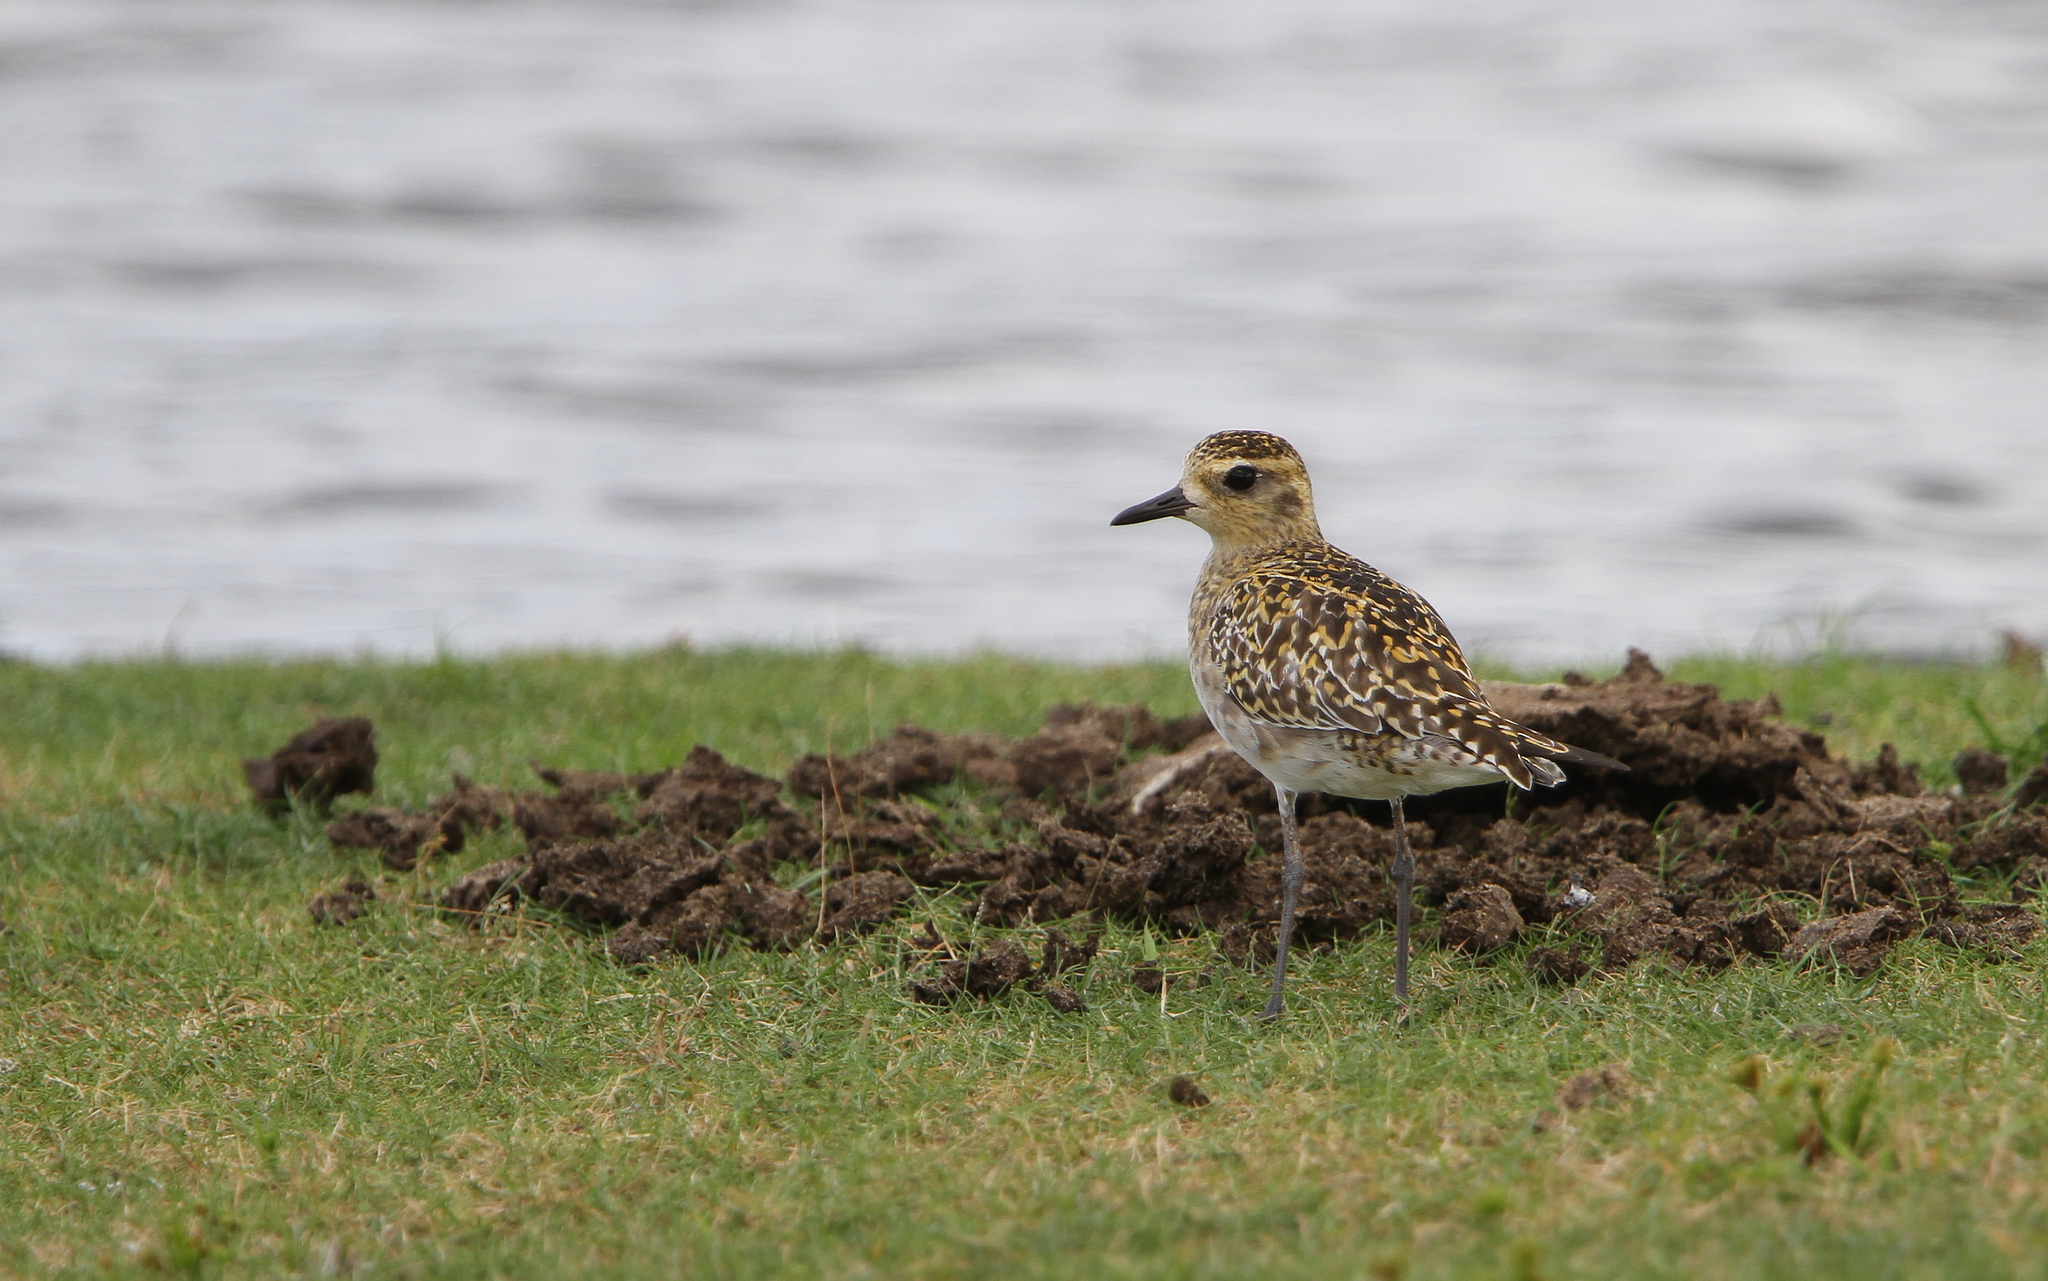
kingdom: Animalia
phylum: Chordata
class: Aves
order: Charadriiformes
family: Charadriidae
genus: Pluvialis
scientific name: Pluvialis fulva
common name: Pacific golden plover
